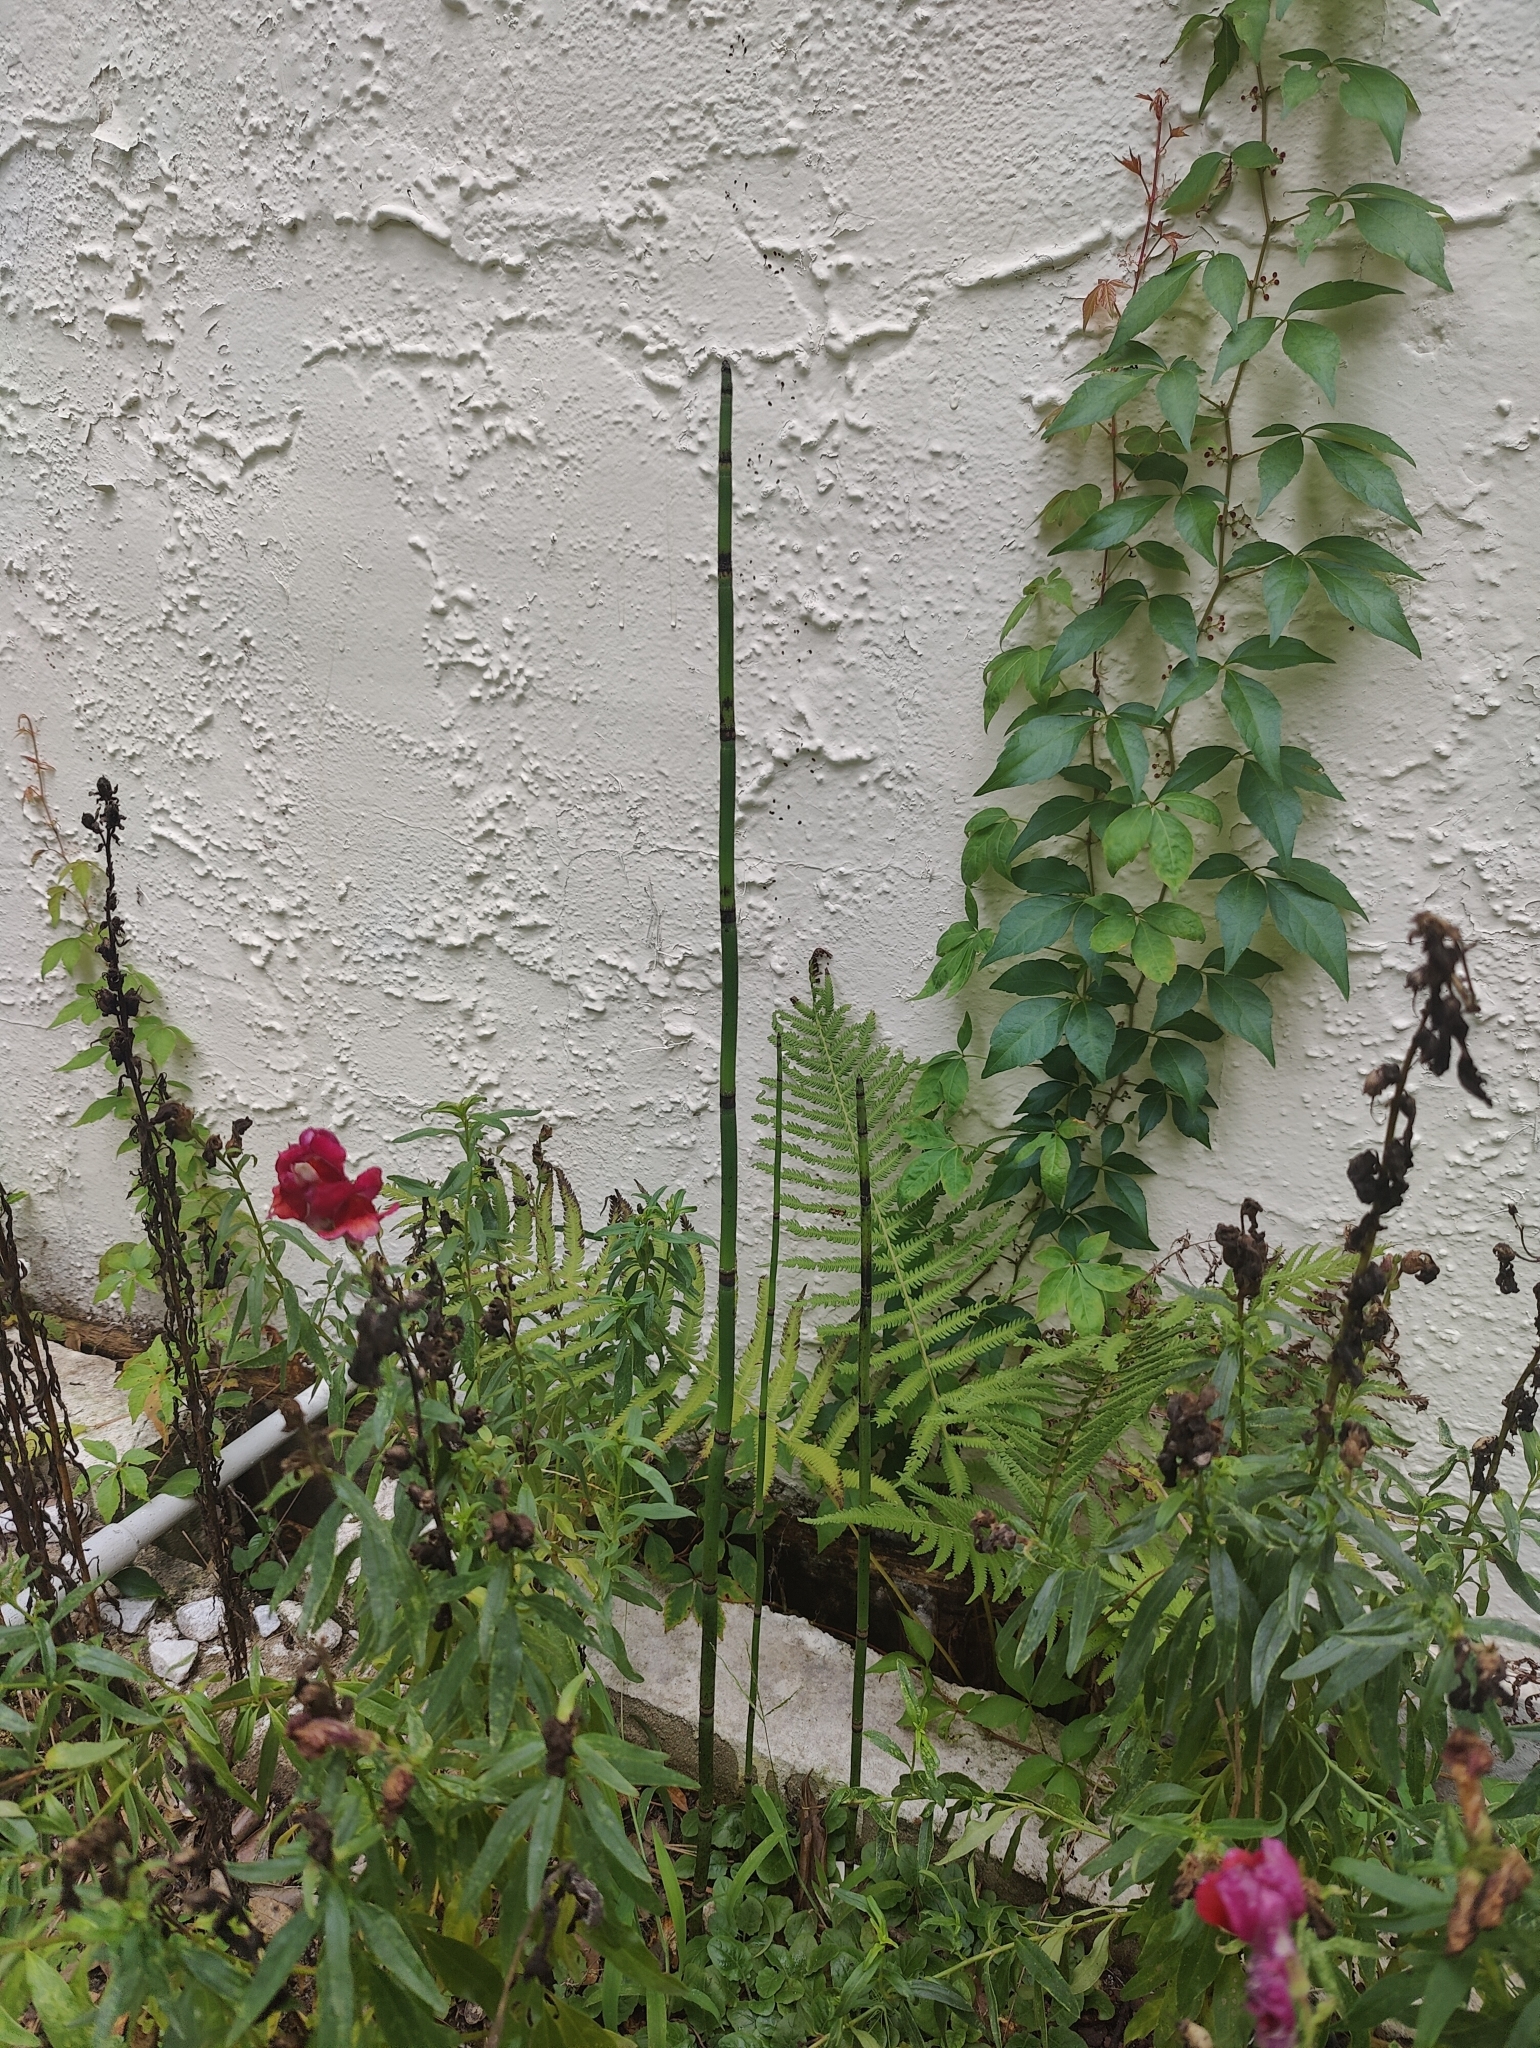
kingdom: Plantae
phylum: Tracheophyta
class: Polypodiopsida
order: Equisetales
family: Equisetaceae
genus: Equisetum
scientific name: Equisetum praealtum
